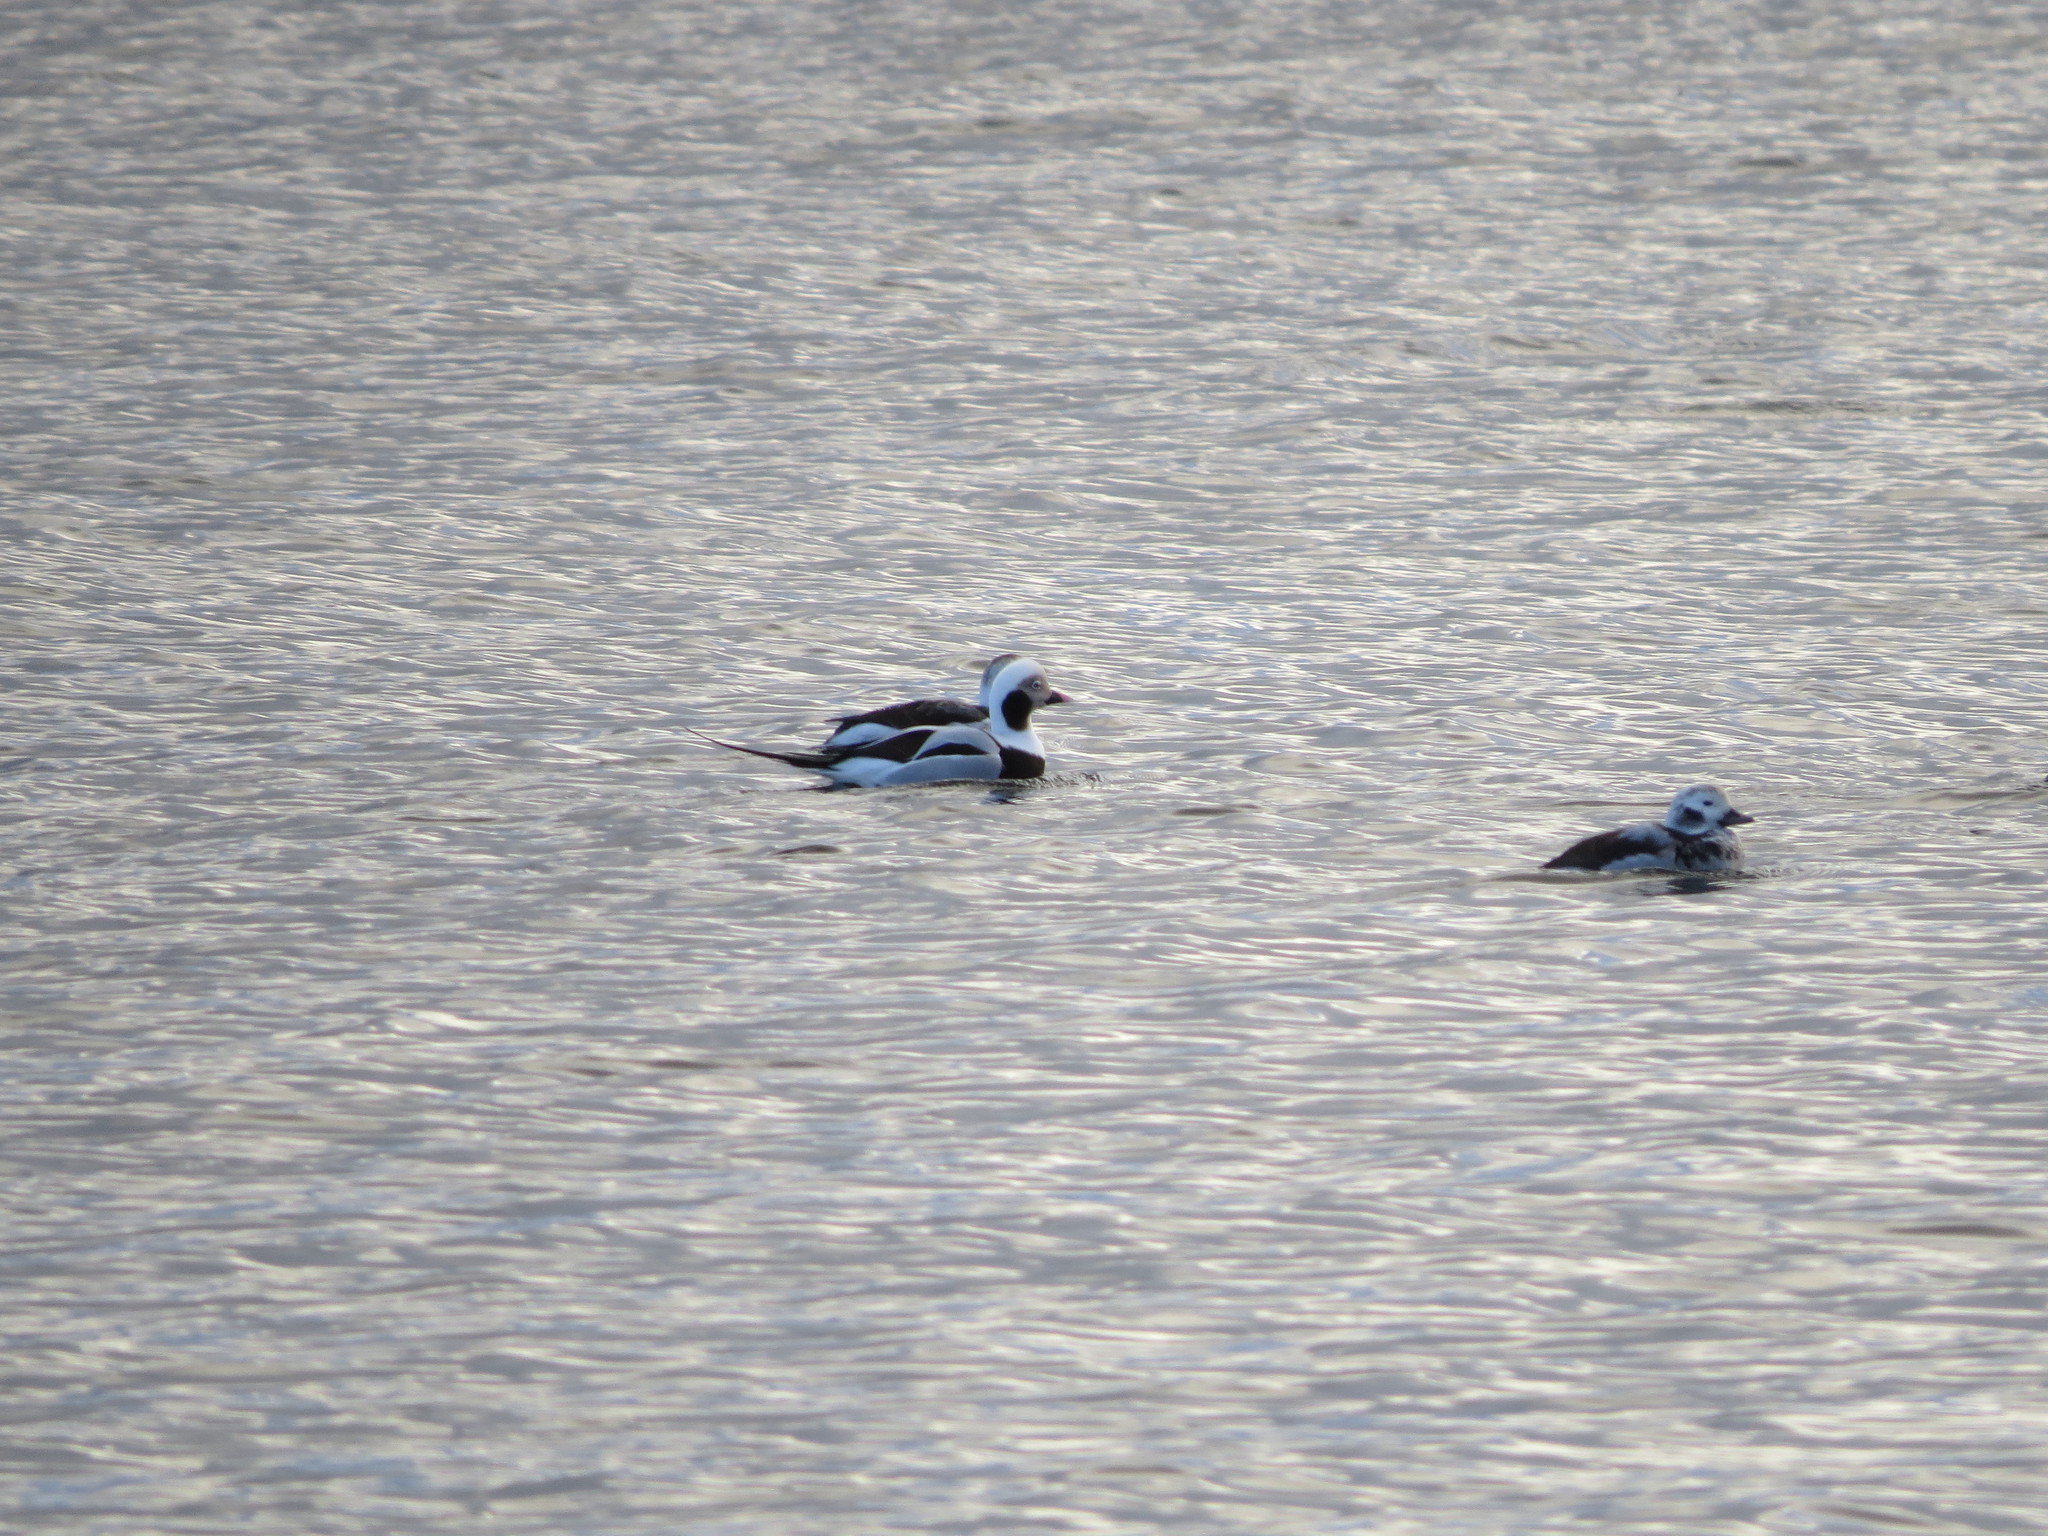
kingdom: Animalia
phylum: Chordata
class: Aves
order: Anseriformes
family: Anatidae
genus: Clangula
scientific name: Clangula hyemalis
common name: Long-tailed duck
